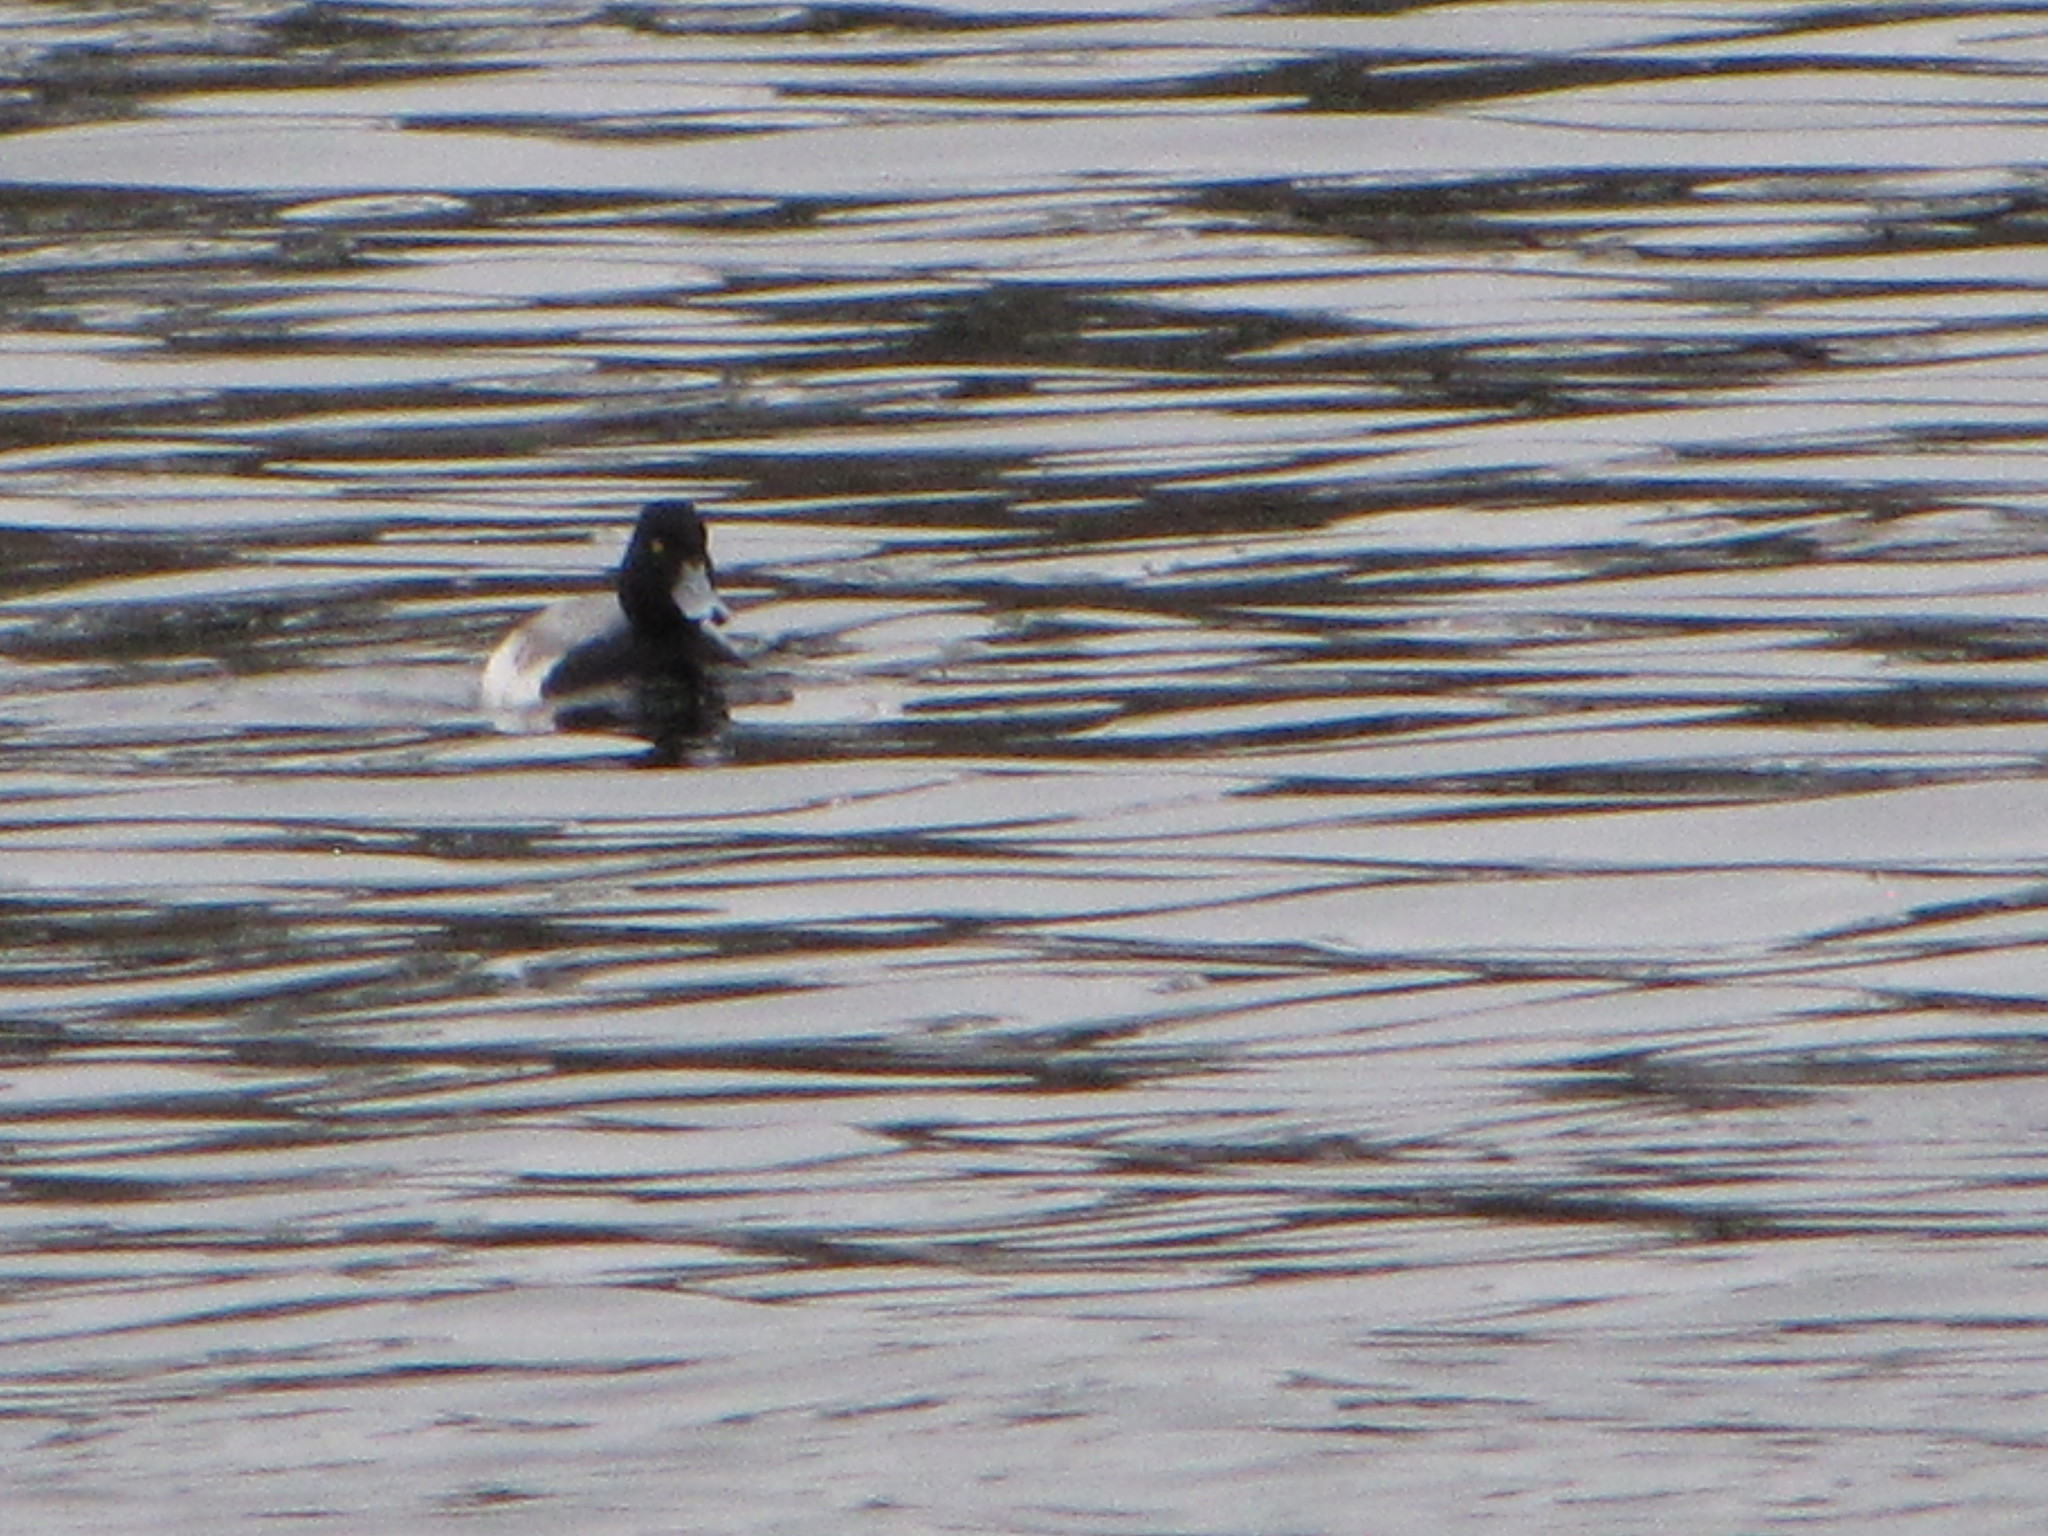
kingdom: Animalia
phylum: Chordata
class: Aves
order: Anseriformes
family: Anatidae
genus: Aythya
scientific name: Aythya affinis
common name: Lesser scaup
